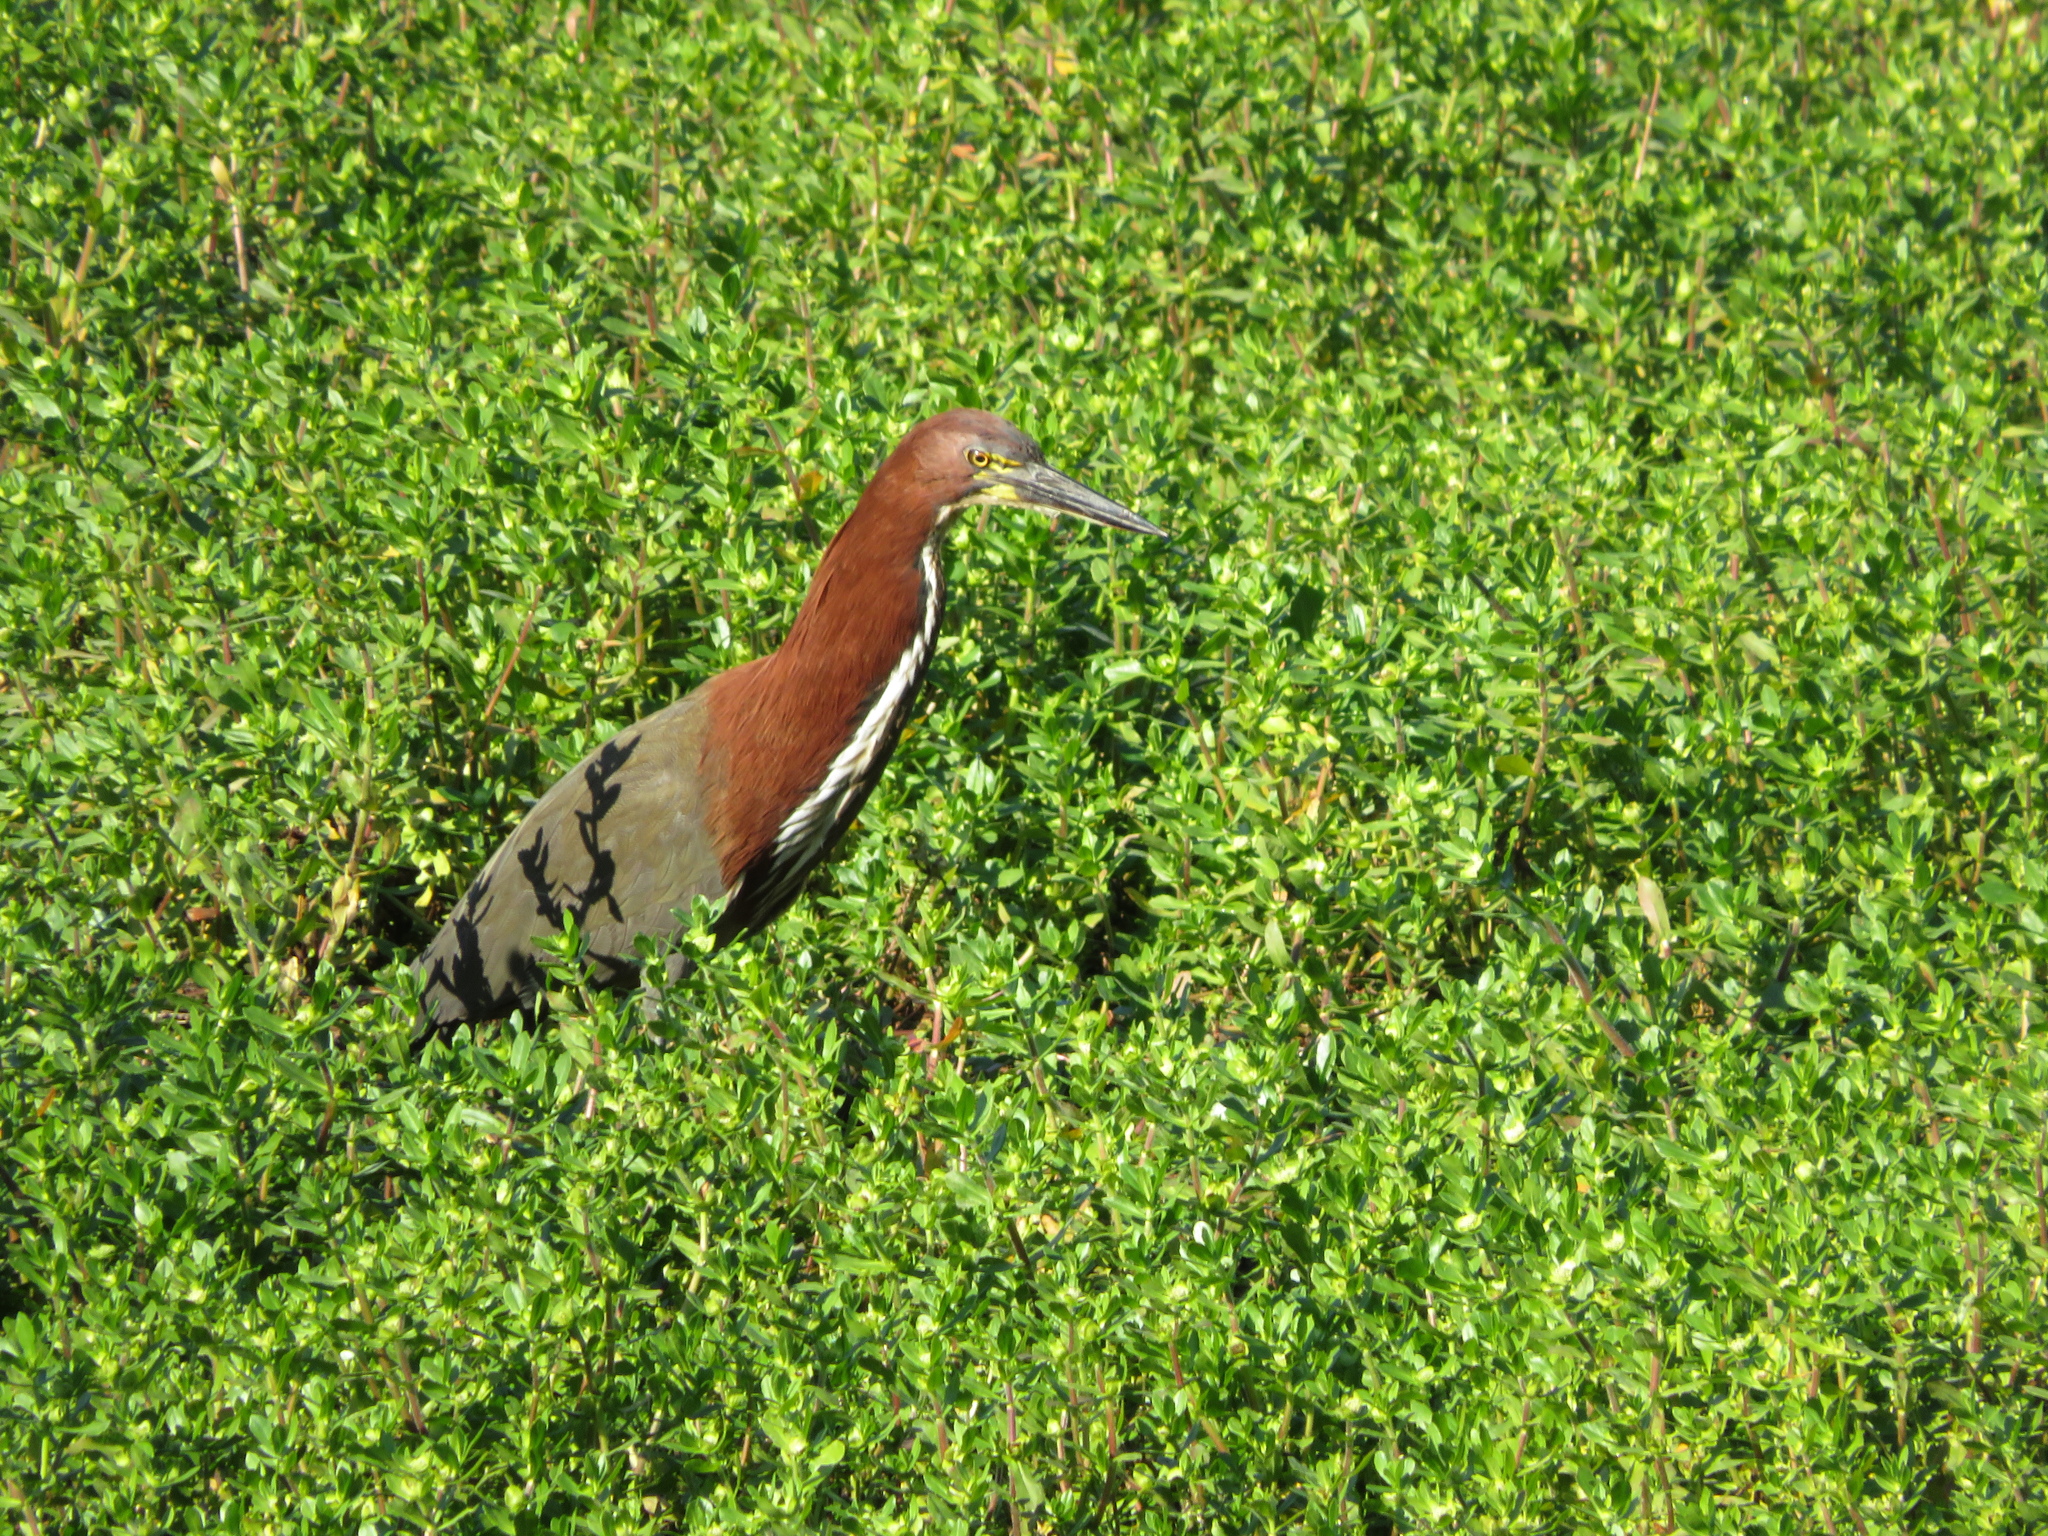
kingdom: Animalia
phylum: Chordata
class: Aves
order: Pelecaniformes
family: Ardeidae
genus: Tigrisoma
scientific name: Tigrisoma lineatum
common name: Rufescent tiger-heron
